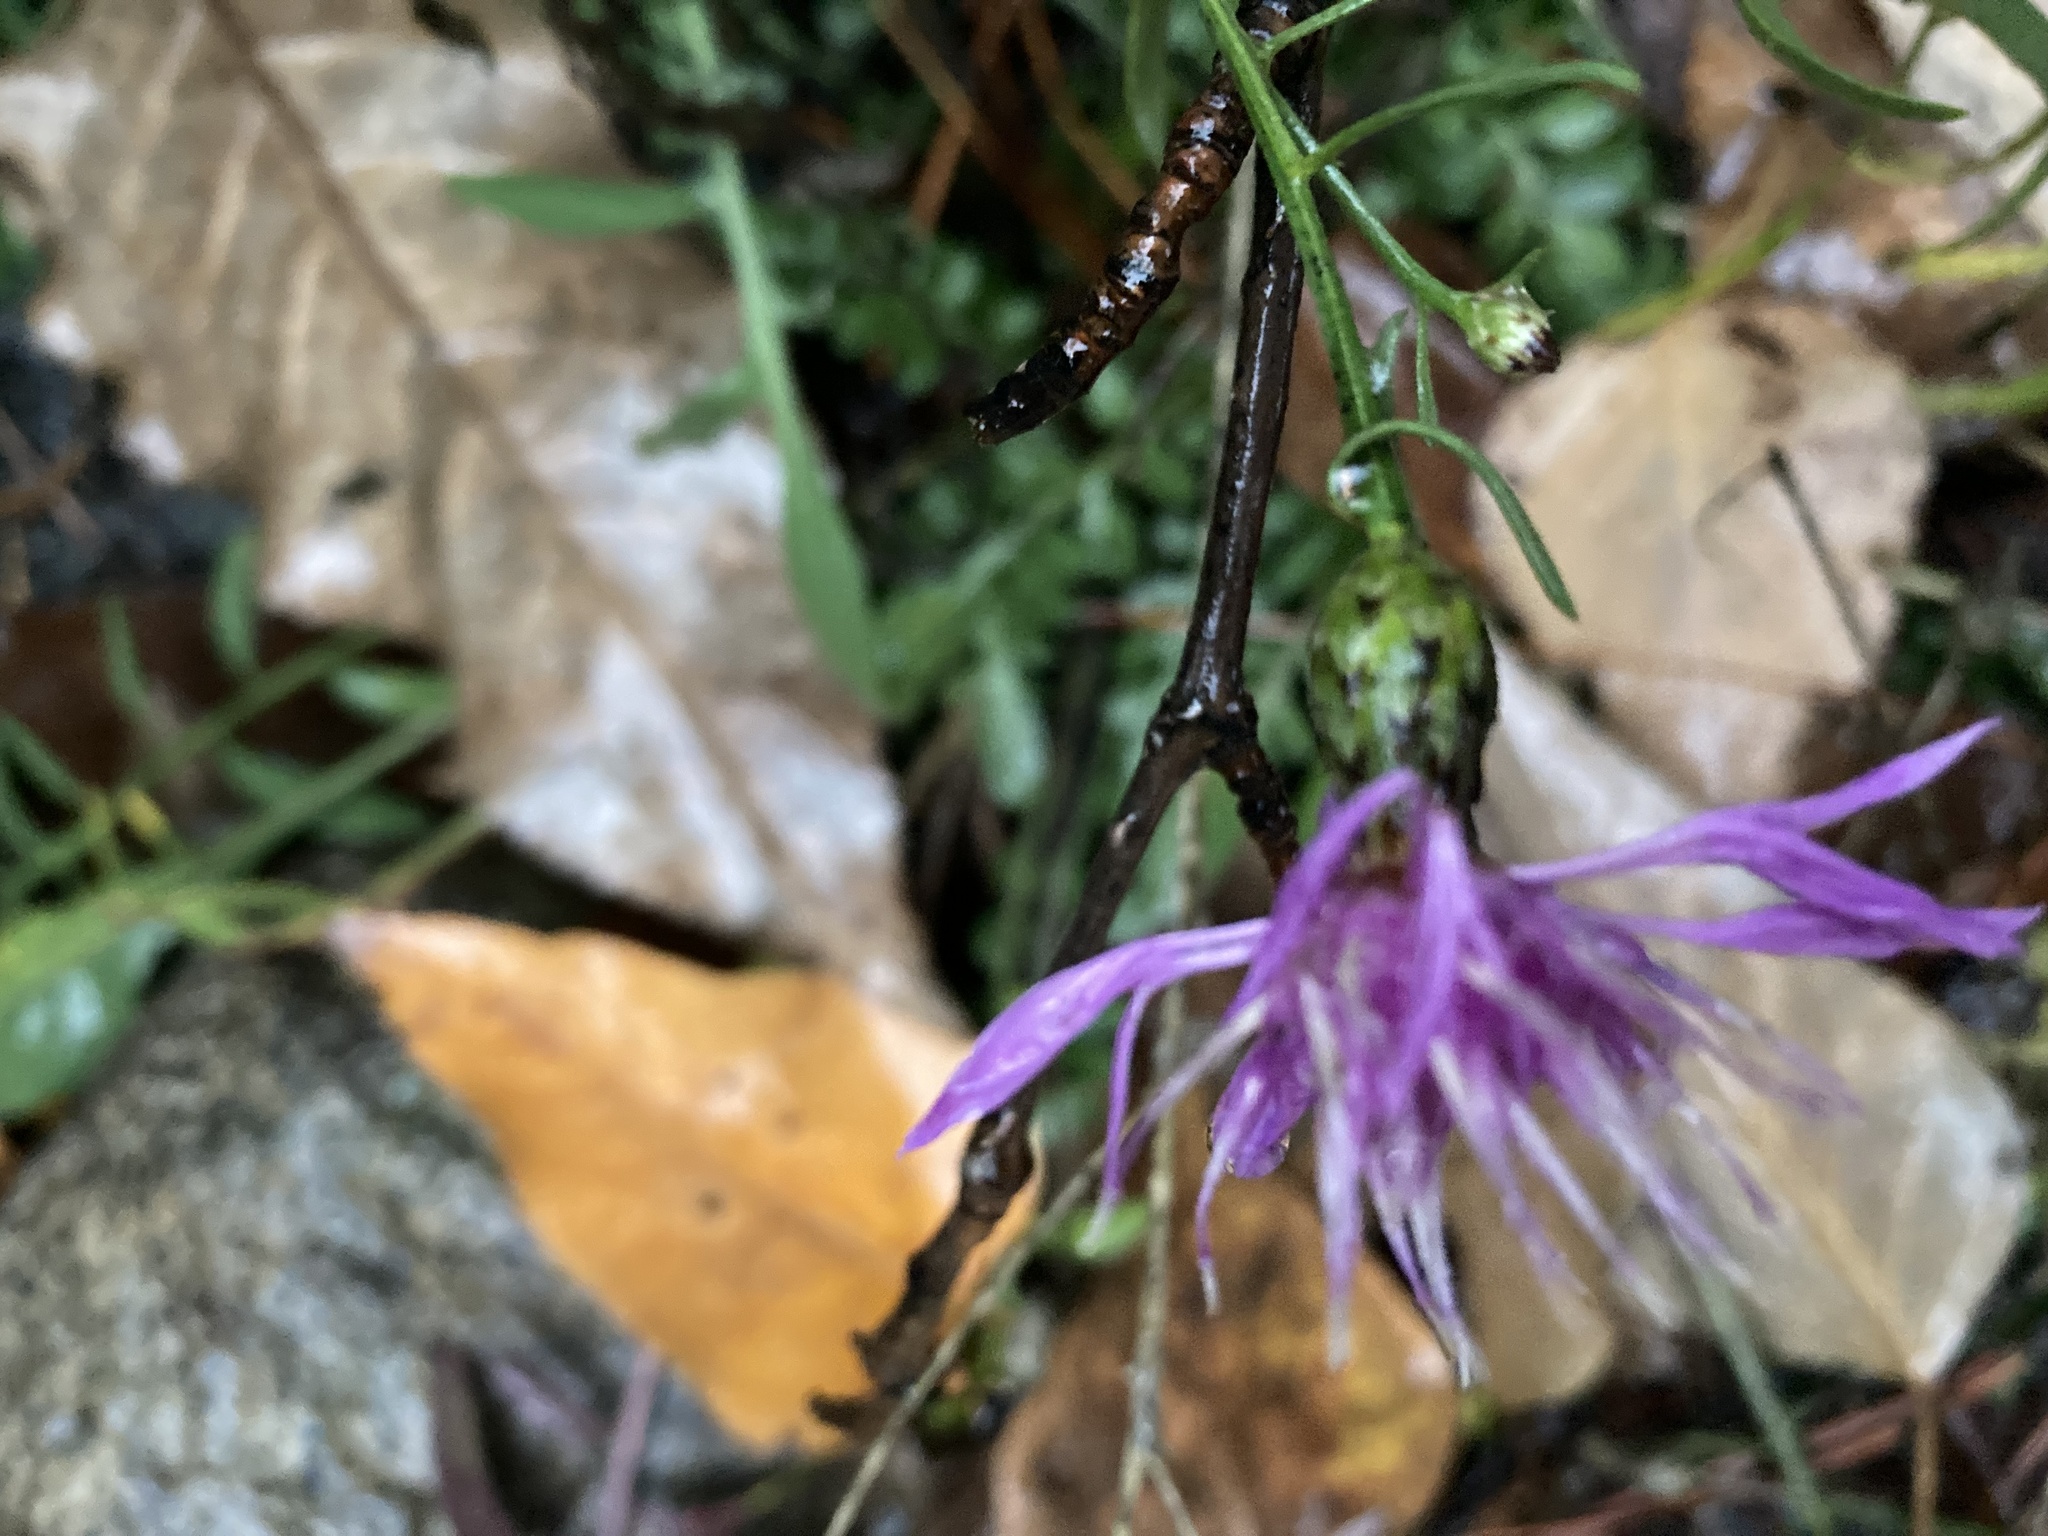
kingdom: Plantae
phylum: Tracheophyta
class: Magnoliopsida
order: Asterales
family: Asteraceae
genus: Centaurea
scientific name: Centaurea stoebe
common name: Spotted knapweed
